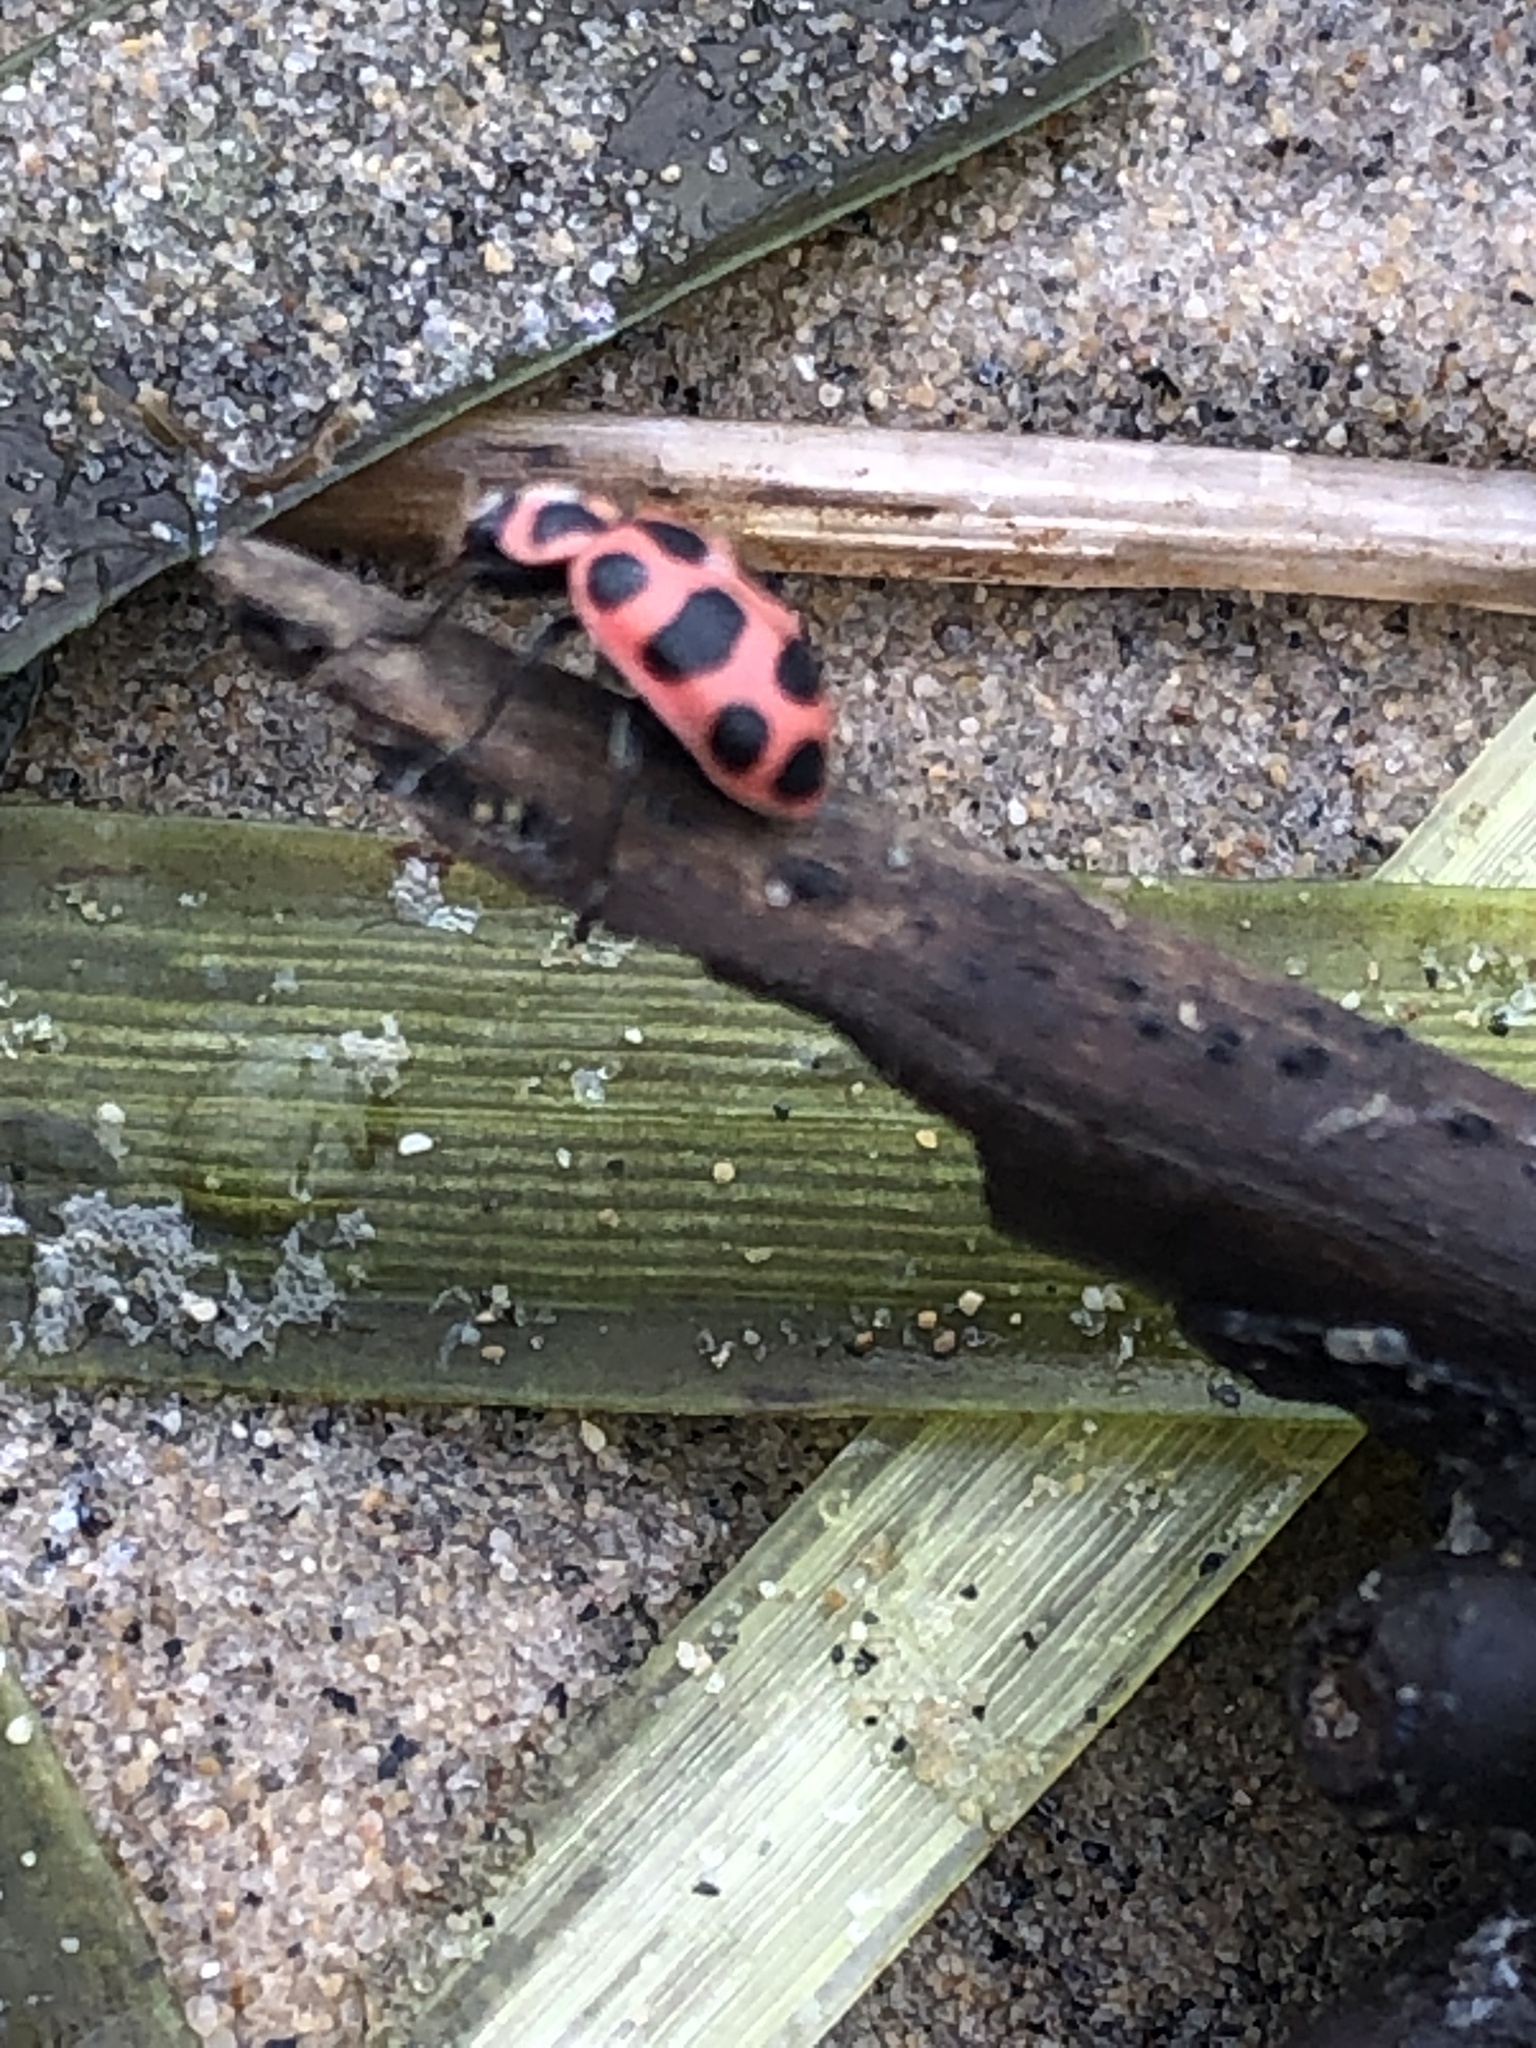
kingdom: Animalia
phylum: Arthropoda
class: Insecta
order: Coleoptera
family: Coccinellidae
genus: Coleomegilla
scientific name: Coleomegilla maculata
